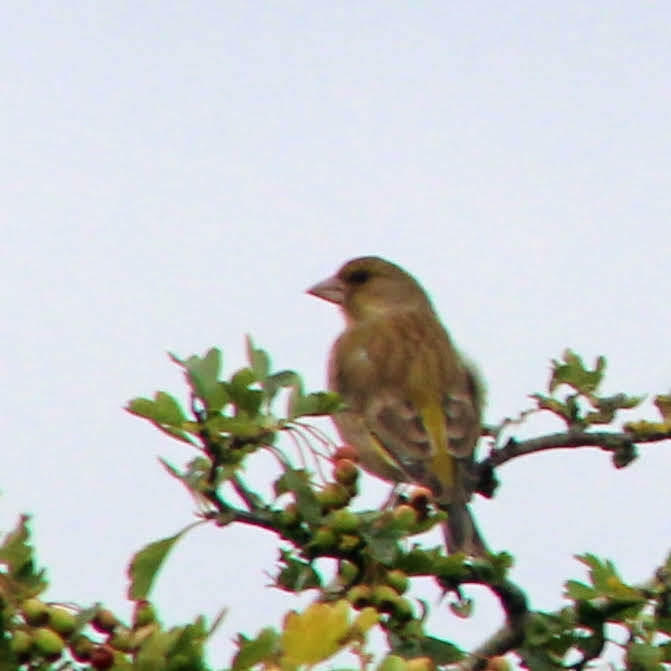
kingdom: Plantae
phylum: Tracheophyta
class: Liliopsida
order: Poales
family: Poaceae
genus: Chloris
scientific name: Chloris chloris
